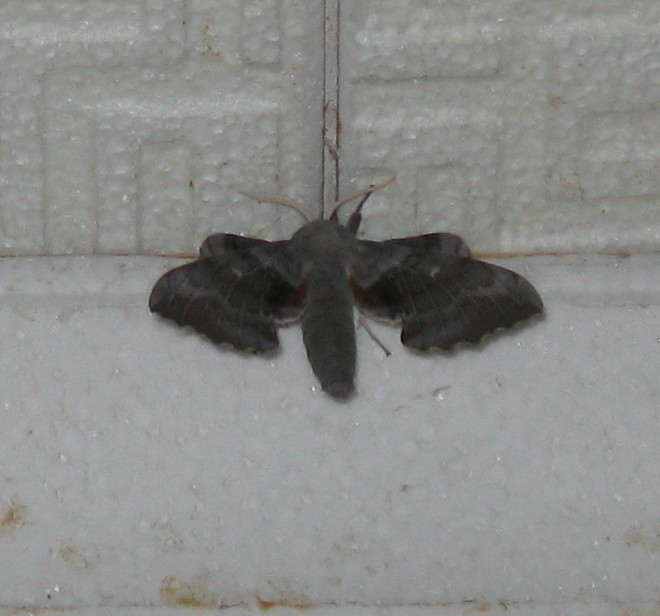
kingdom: Animalia
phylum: Arthropoda
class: Insecta
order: Lepidoptera
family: Sphingidae
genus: Laothoe
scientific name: Laothoe populi
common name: Poplar hawk-moth
